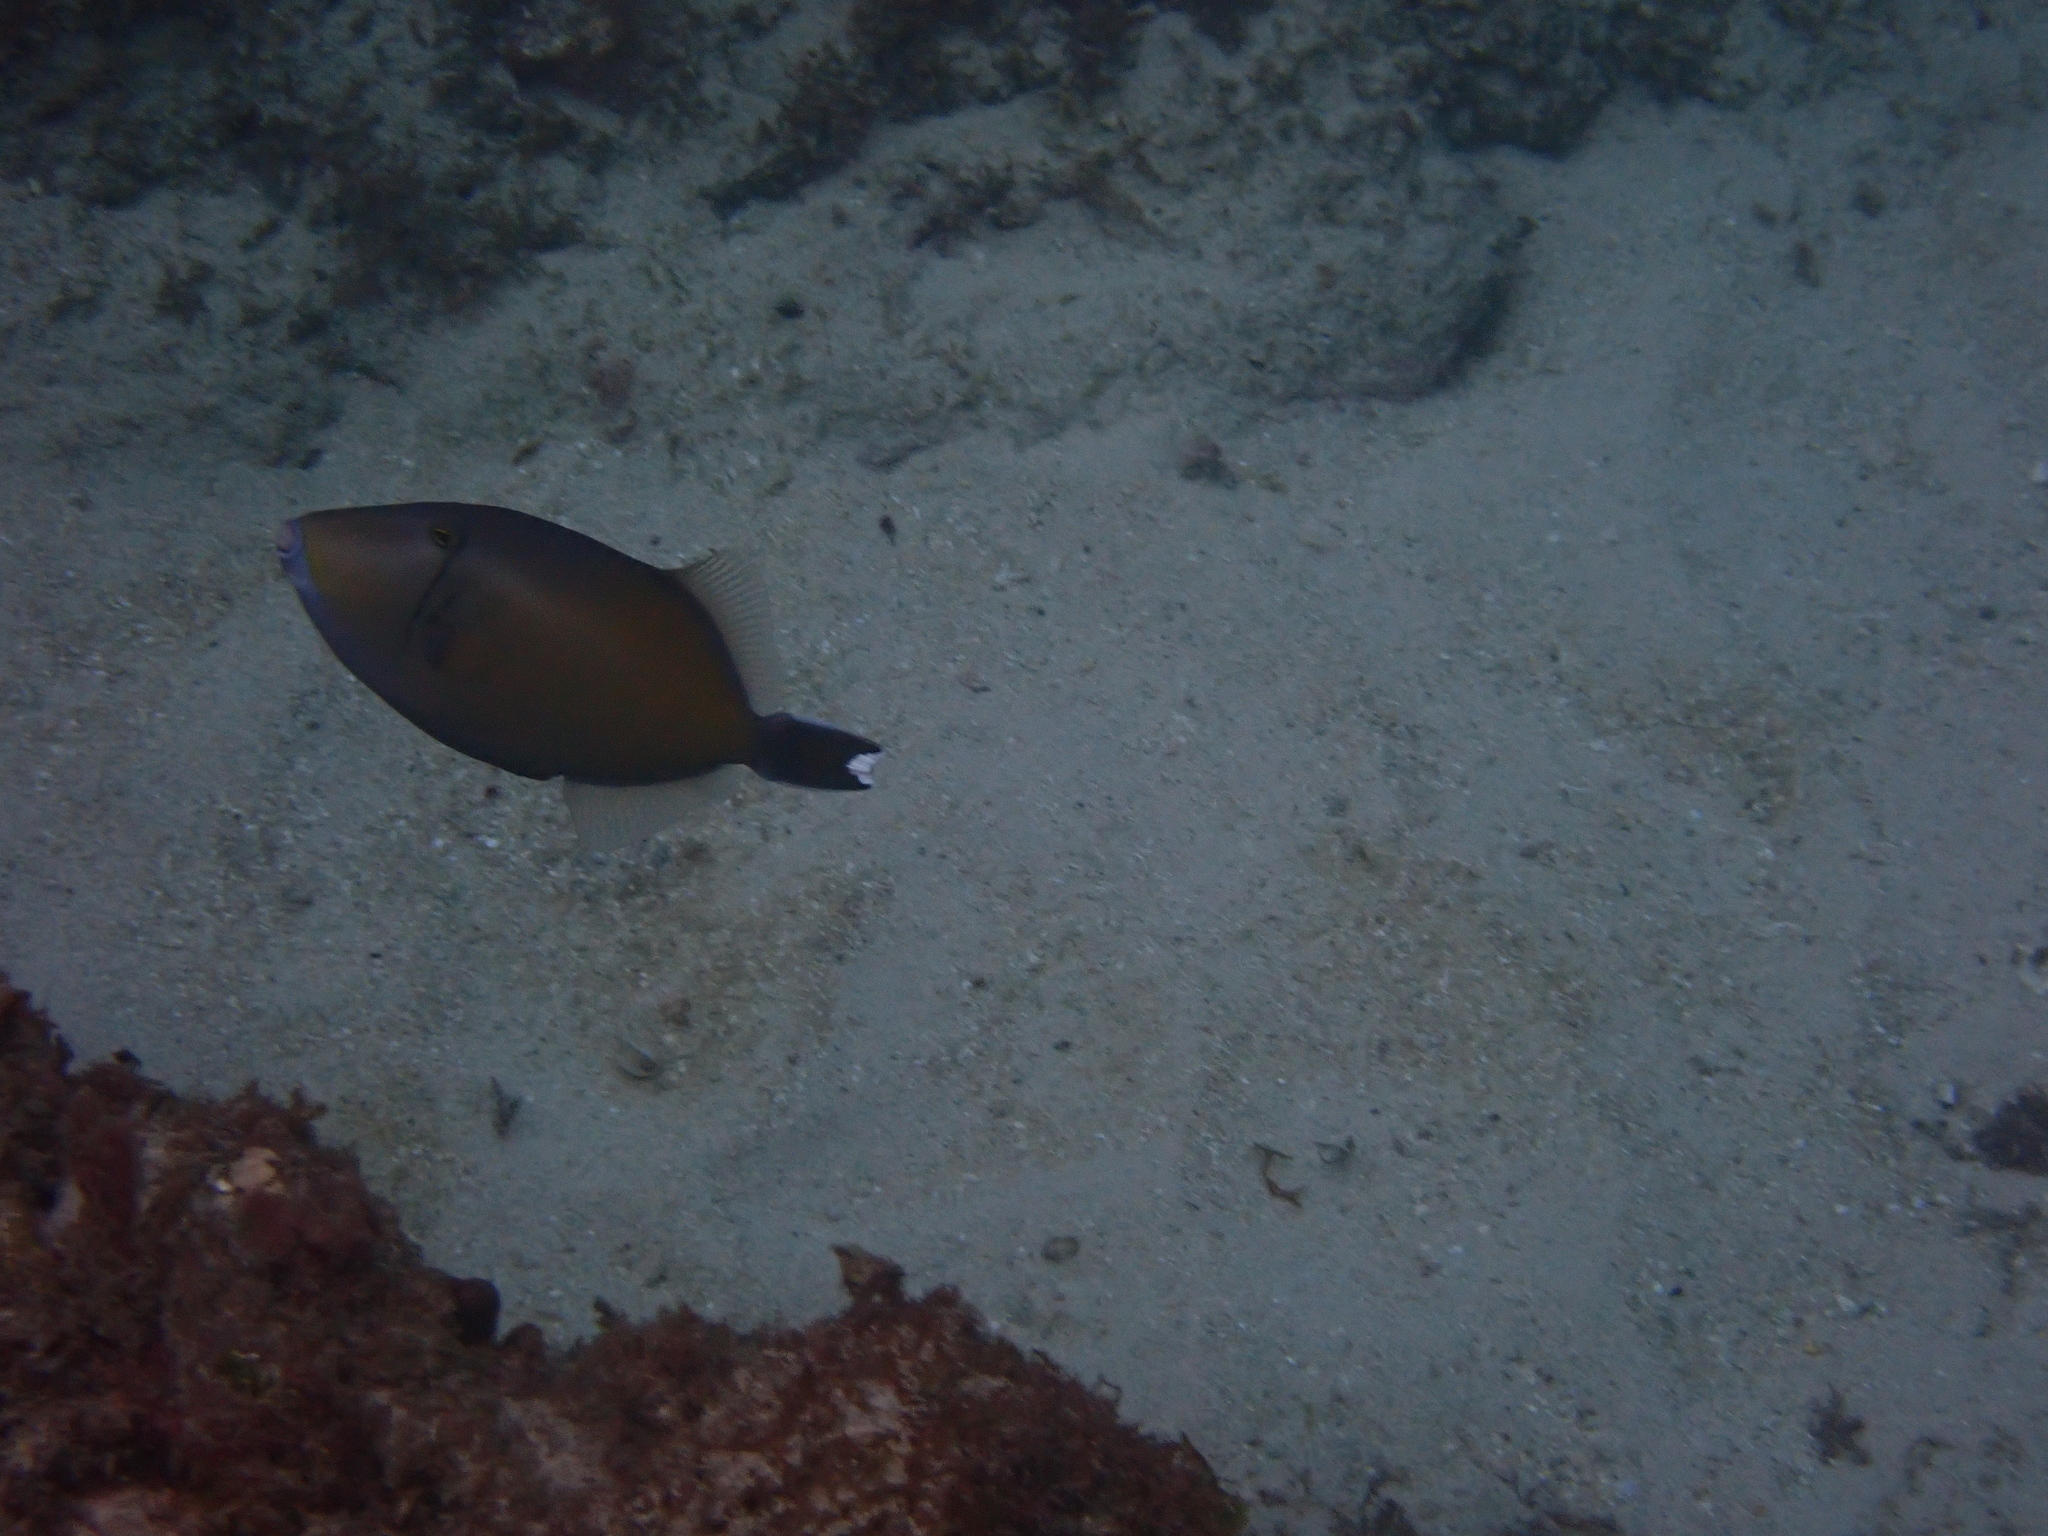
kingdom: Animalia
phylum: Chordata
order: Tetraodontiformes
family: Balistidae
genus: Sufflamen
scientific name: Sufflamen chrysopterum
